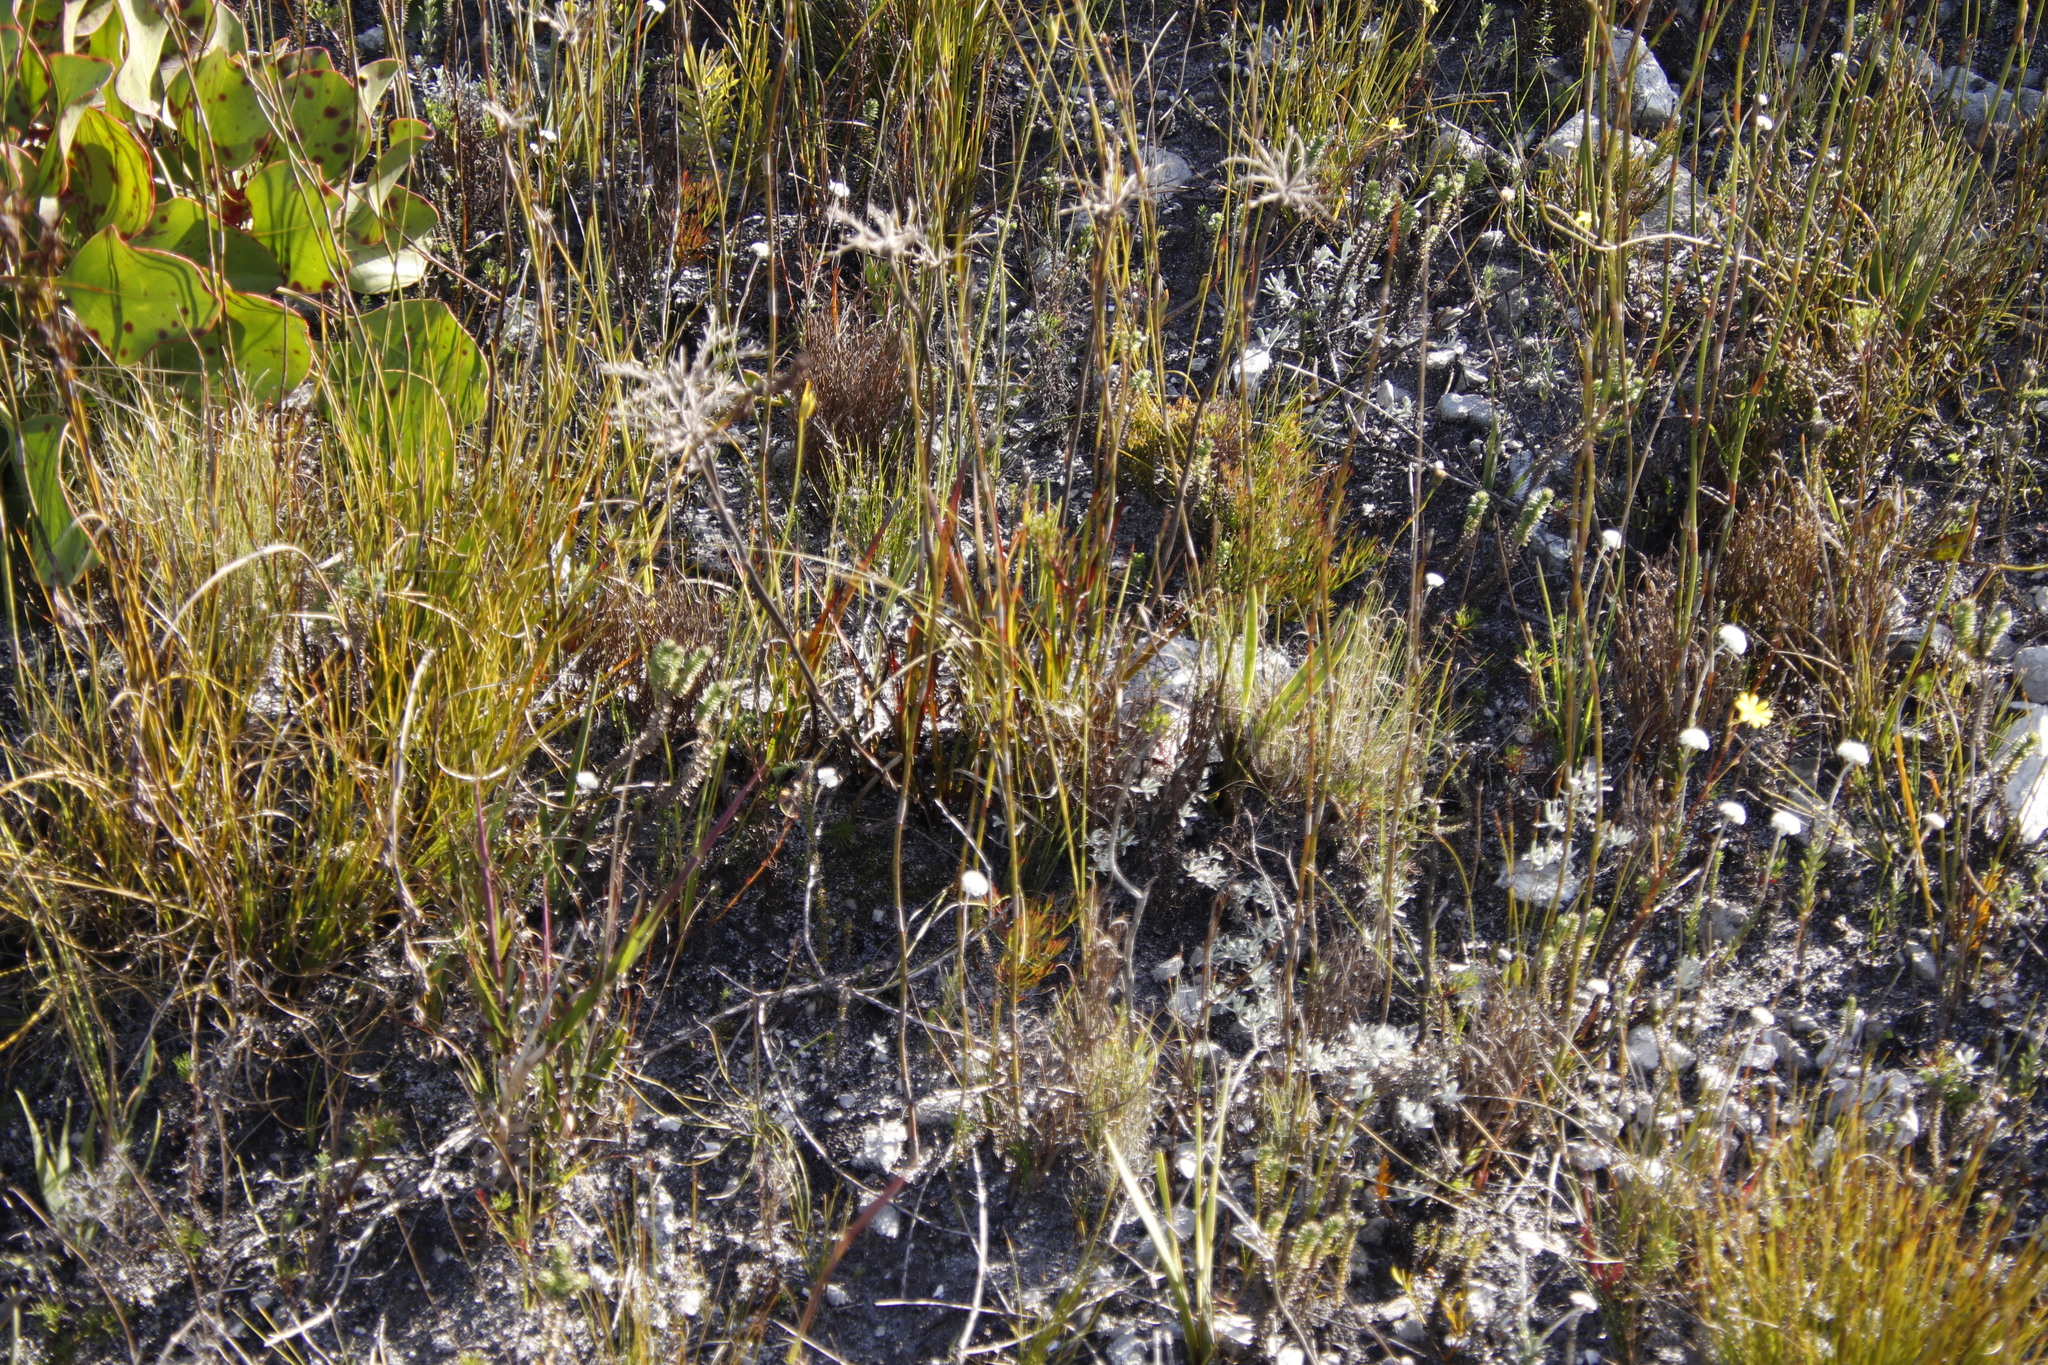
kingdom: Plantae
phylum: Tracheophyta
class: Magnoliopsida
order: Proteales
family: Proteaceae
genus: Serruria
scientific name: Serruria elongata
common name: Long-stalk spiderhead
